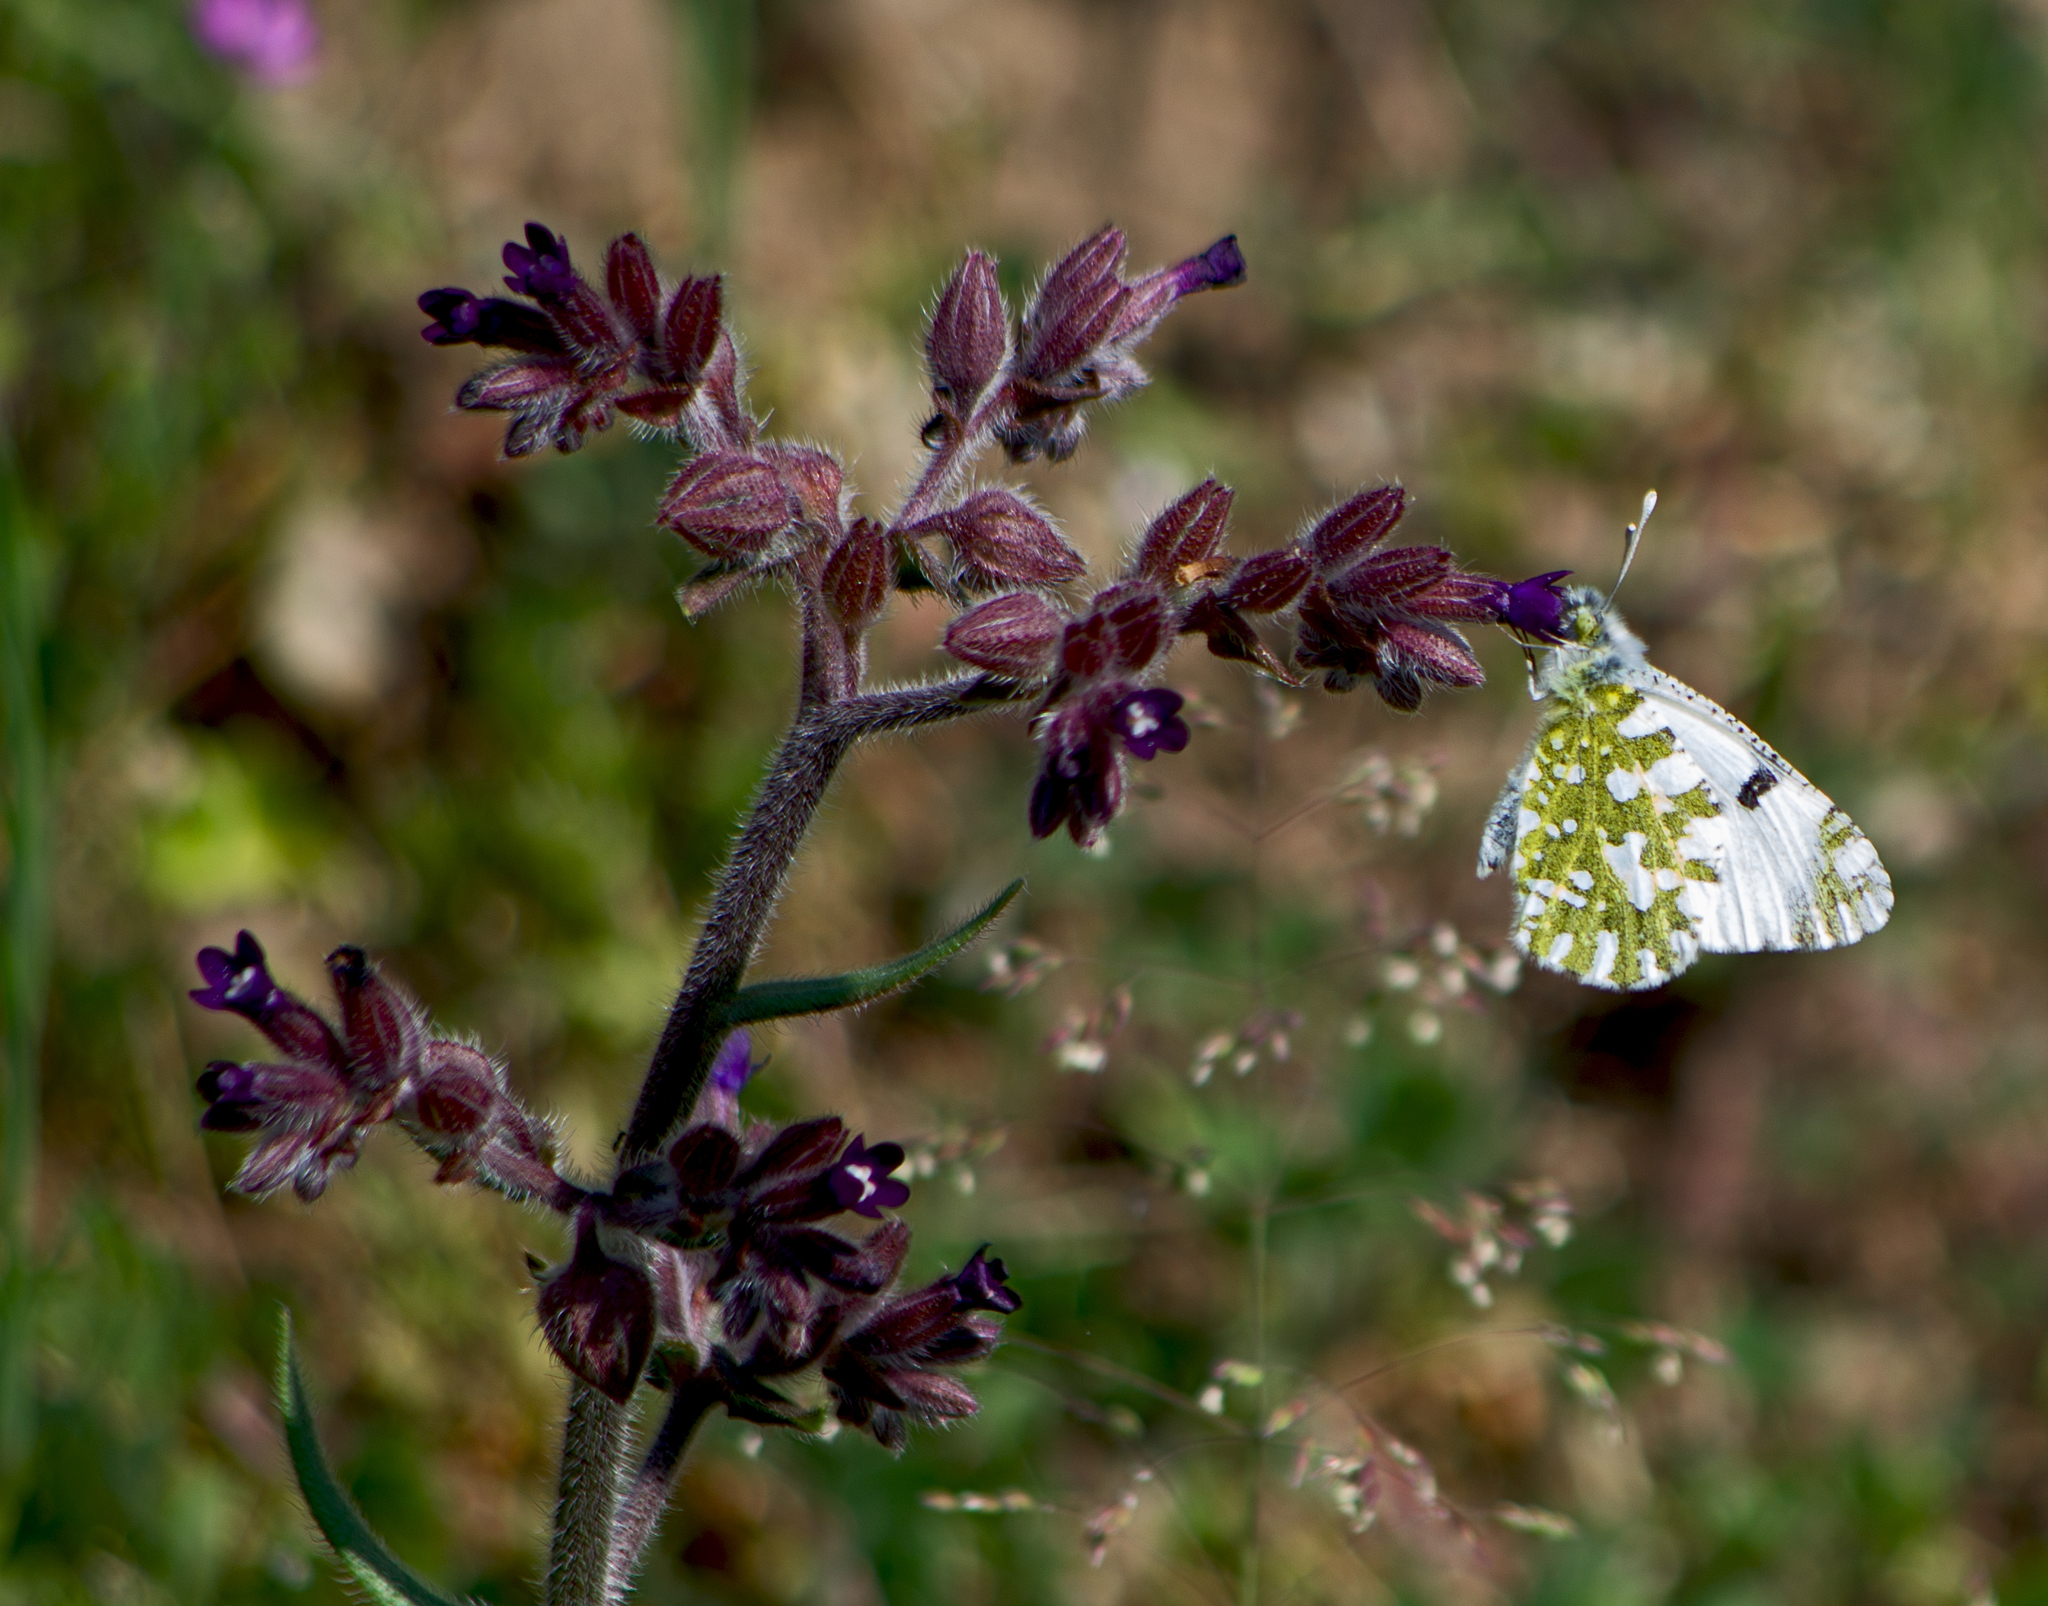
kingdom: Animalia
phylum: Arthropoda
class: Insecta
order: Lepidoptera
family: Pieridae
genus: Euchloe
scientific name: Euchloe ausonia
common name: Eastern dappled white
